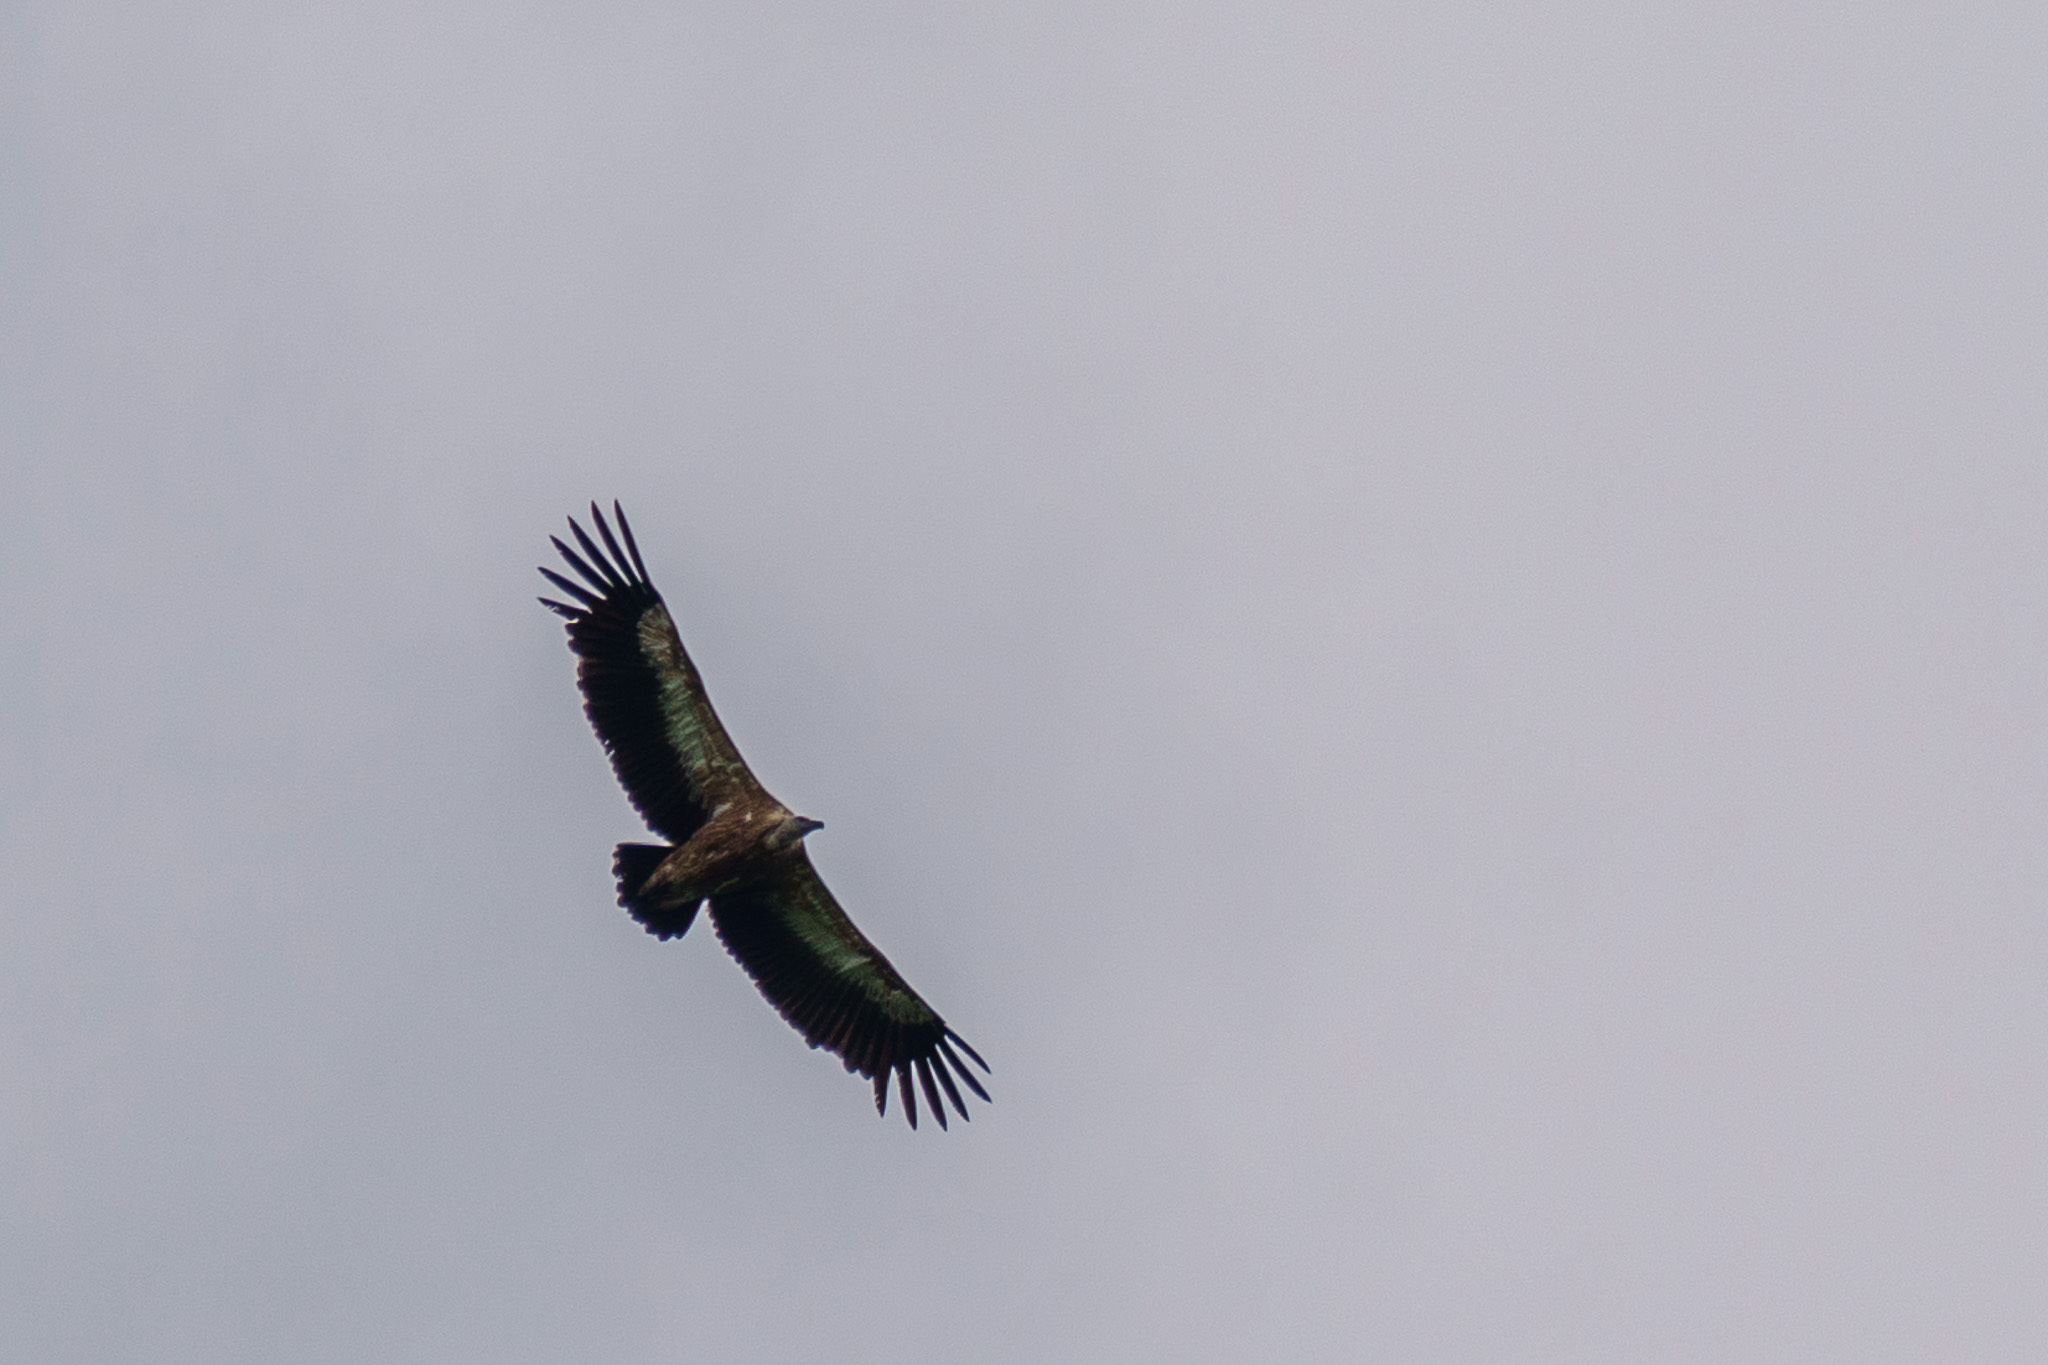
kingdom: Animalia
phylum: Chordata
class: Aves
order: Accipitriformes
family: Accipitridae
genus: Gyps
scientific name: Gyps fulvus
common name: Griffon vulture
